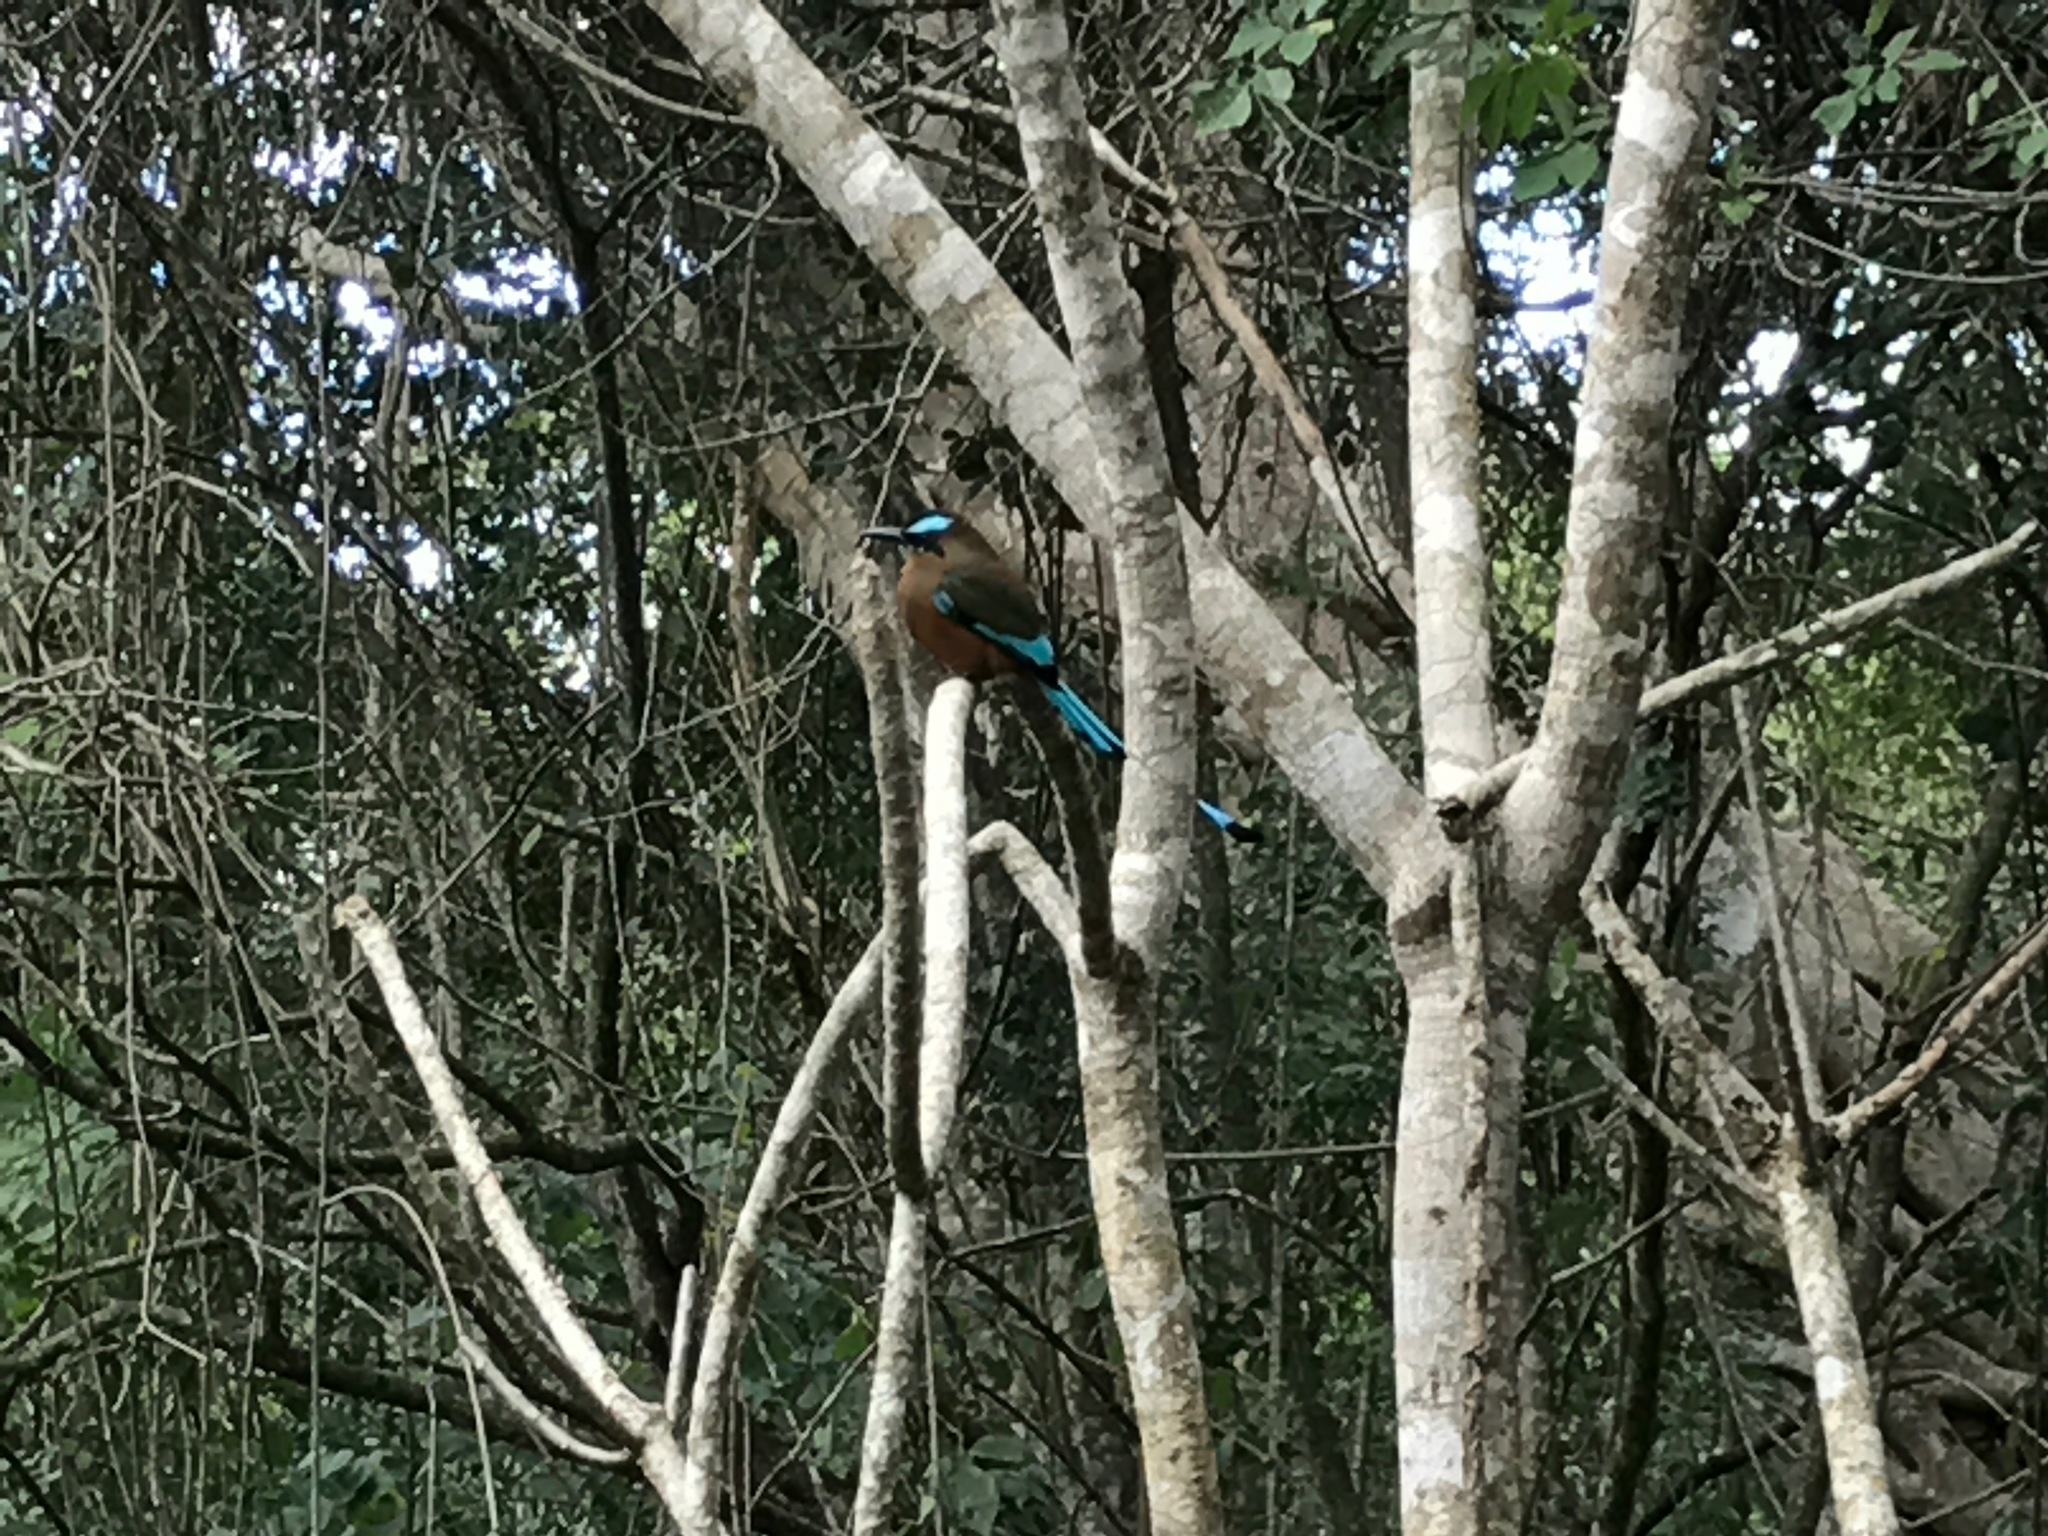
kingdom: Animalia
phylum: Chordata
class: Aves
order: Coraciiformes
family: Momotidae
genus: Eumomota
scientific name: Eumomota superciliosa
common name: Turquoise-browed motmot
